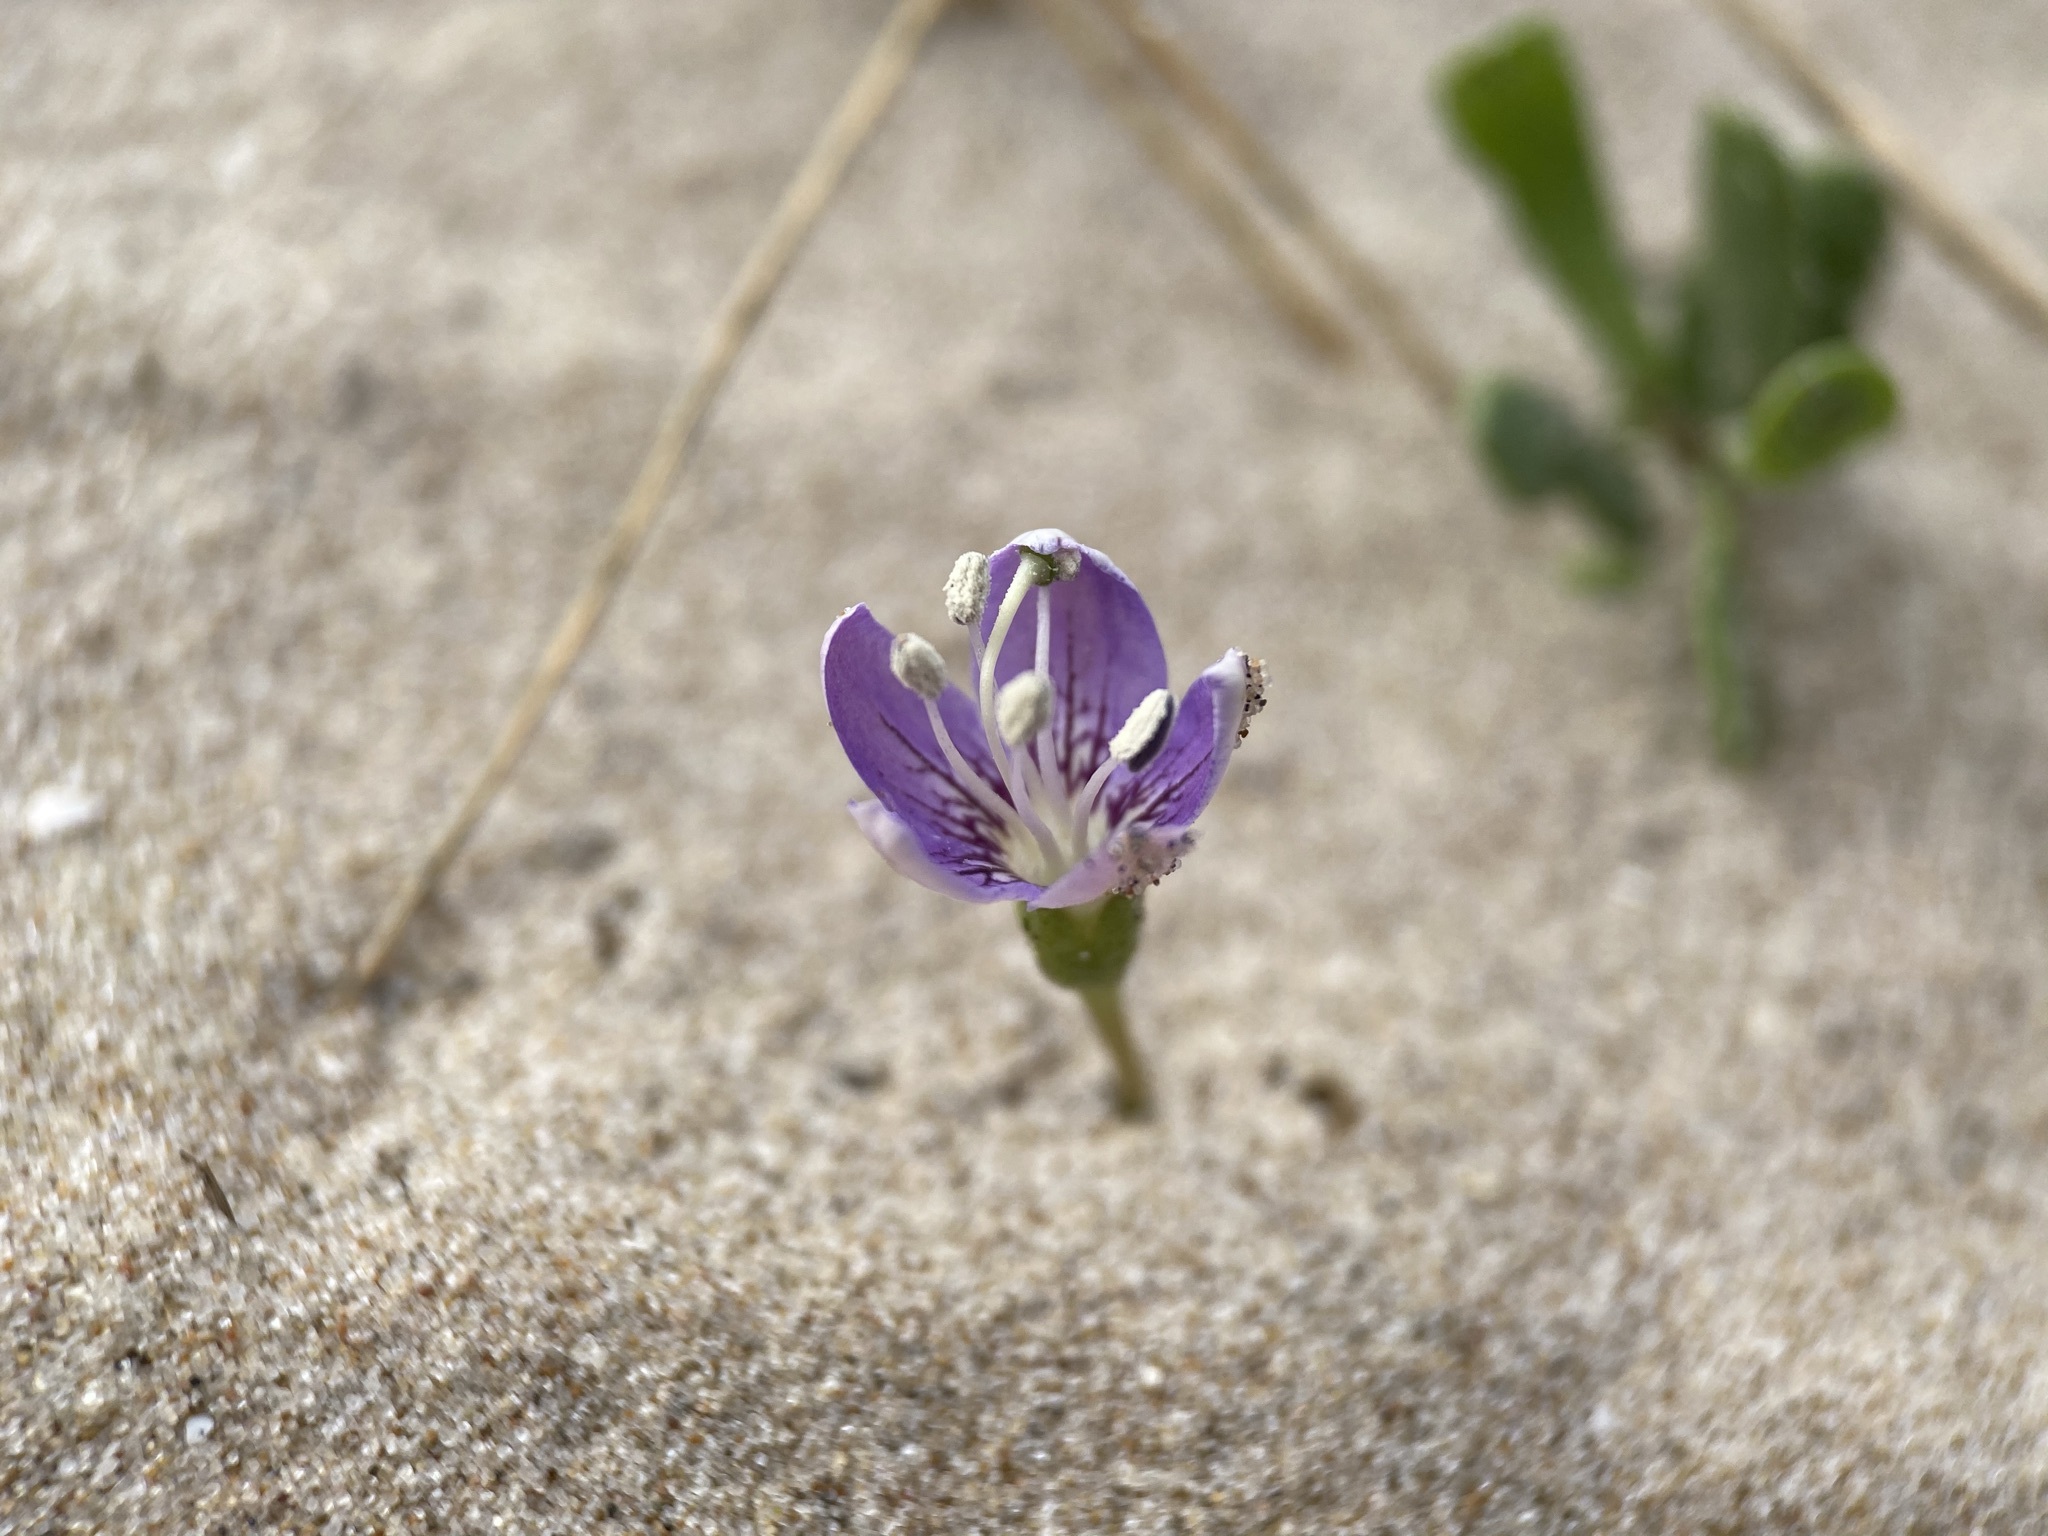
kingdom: Plantae
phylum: Tracheophyta
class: Magnoliopsida
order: Solanales
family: Solanaceae
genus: Lycium
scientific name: Lycium carolinianum
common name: Christmasberry
